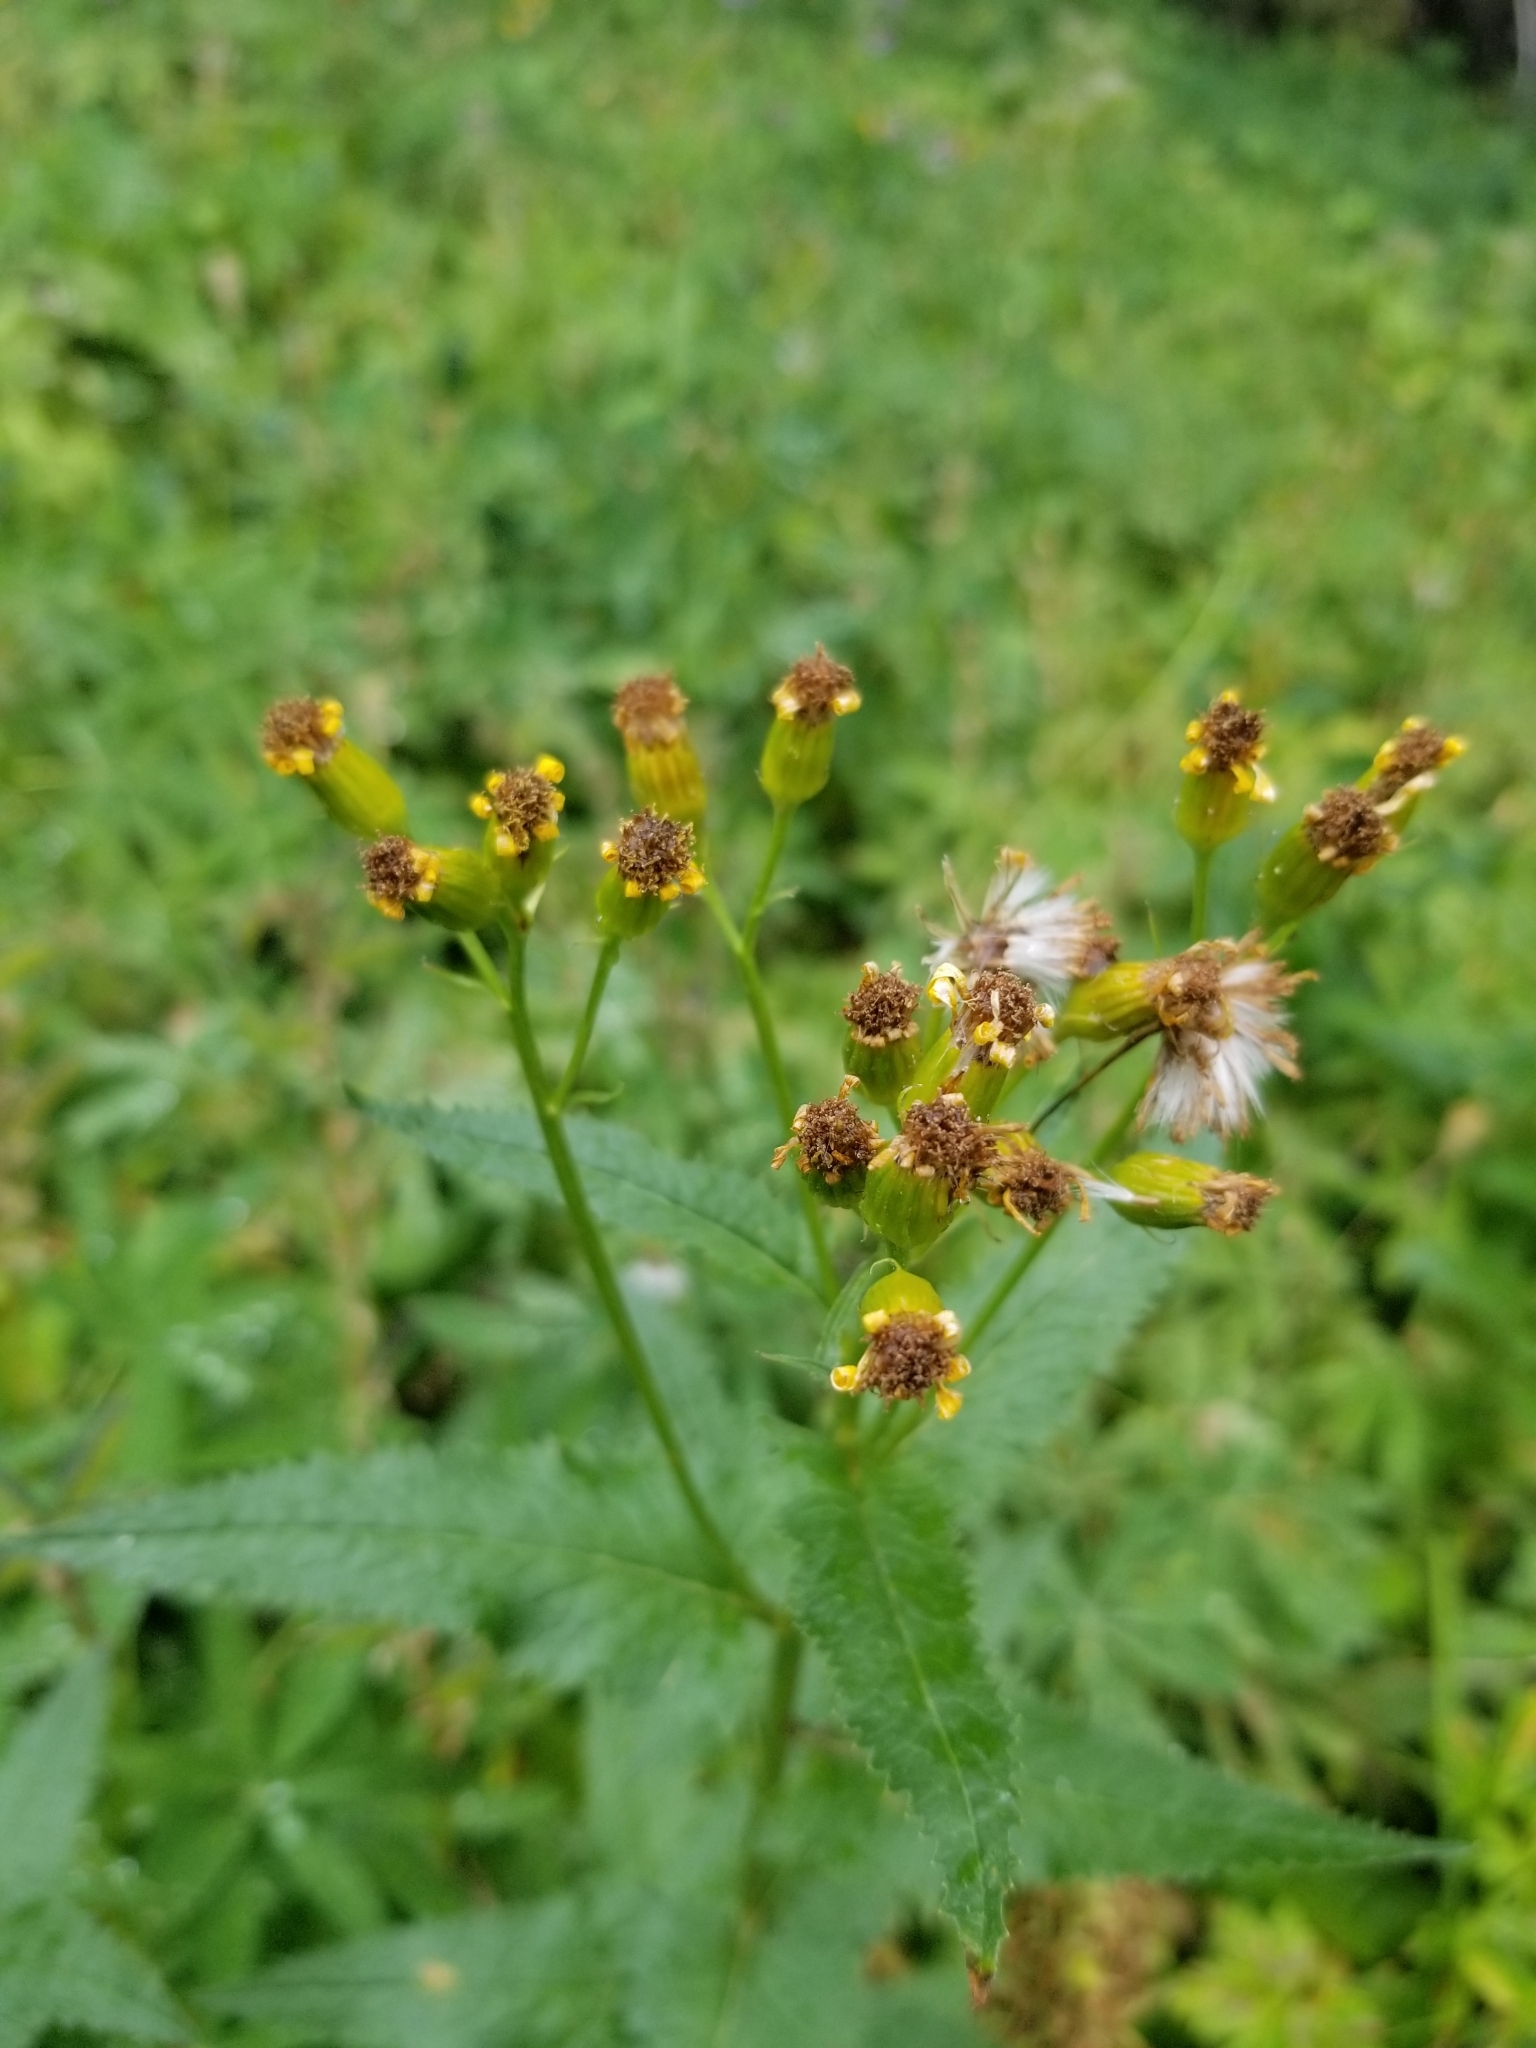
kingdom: Plantae
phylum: Tracheophyta
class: Magnoliopsida
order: Asterales
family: Asteraceae
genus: Senecio
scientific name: Senecio triangularis
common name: Arrowleaf butterweed
